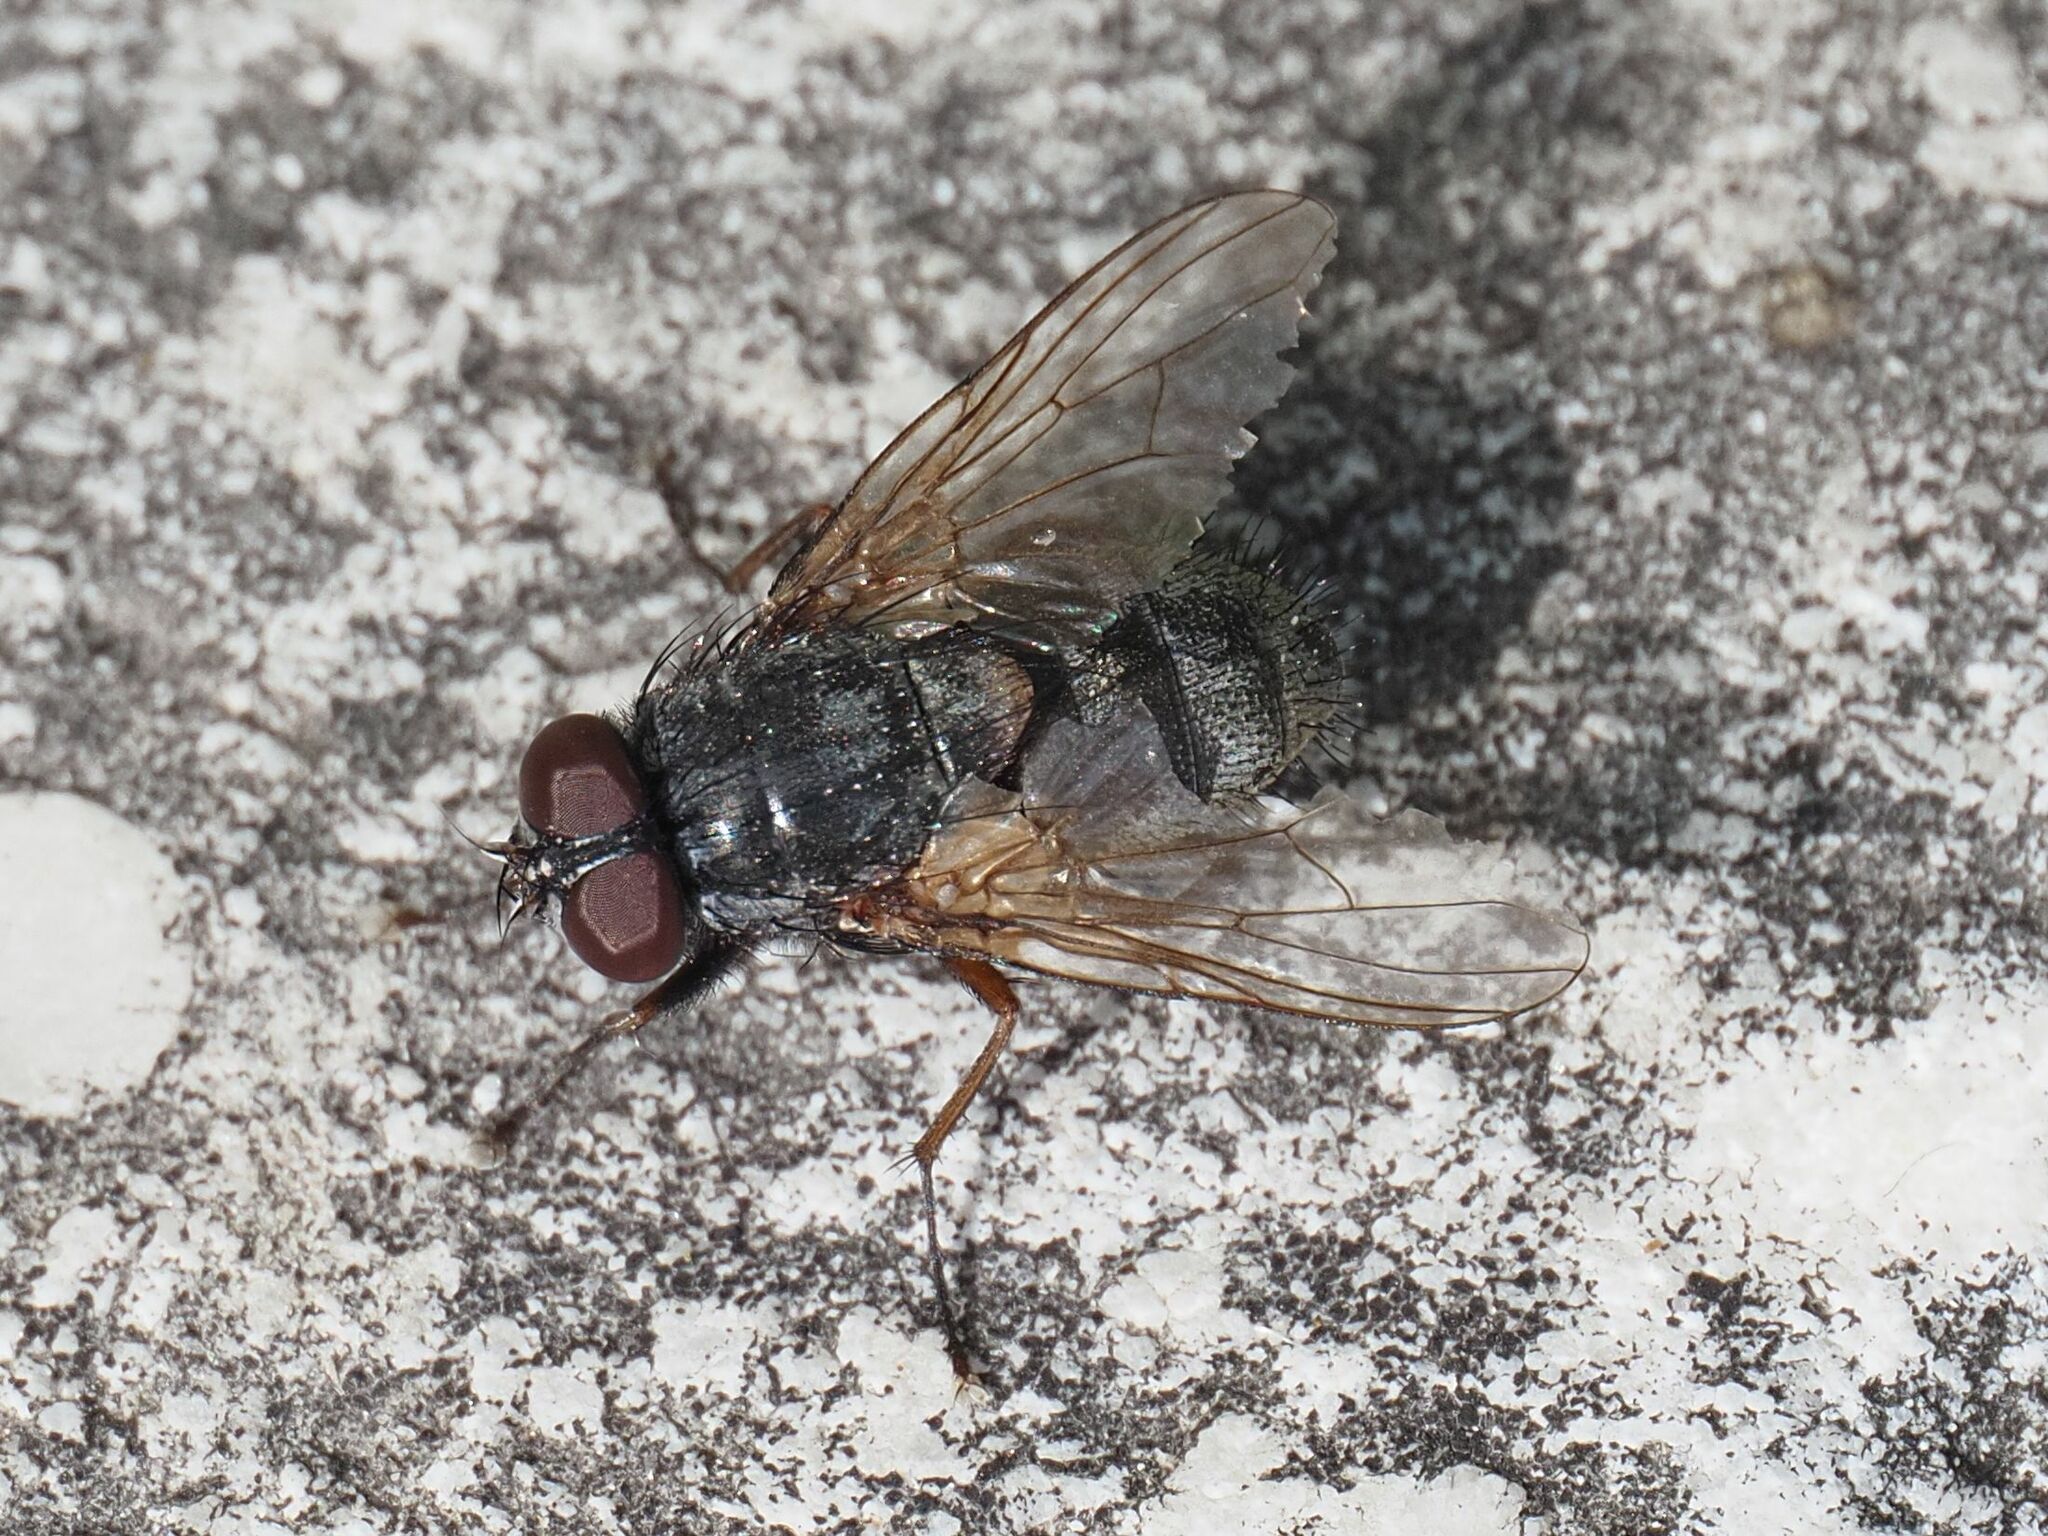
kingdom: Animalia
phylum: Arthropoda
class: Insecta
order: Diptera
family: Muscidae
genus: Muscina
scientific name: Muscina stabulans
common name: False stable fly
